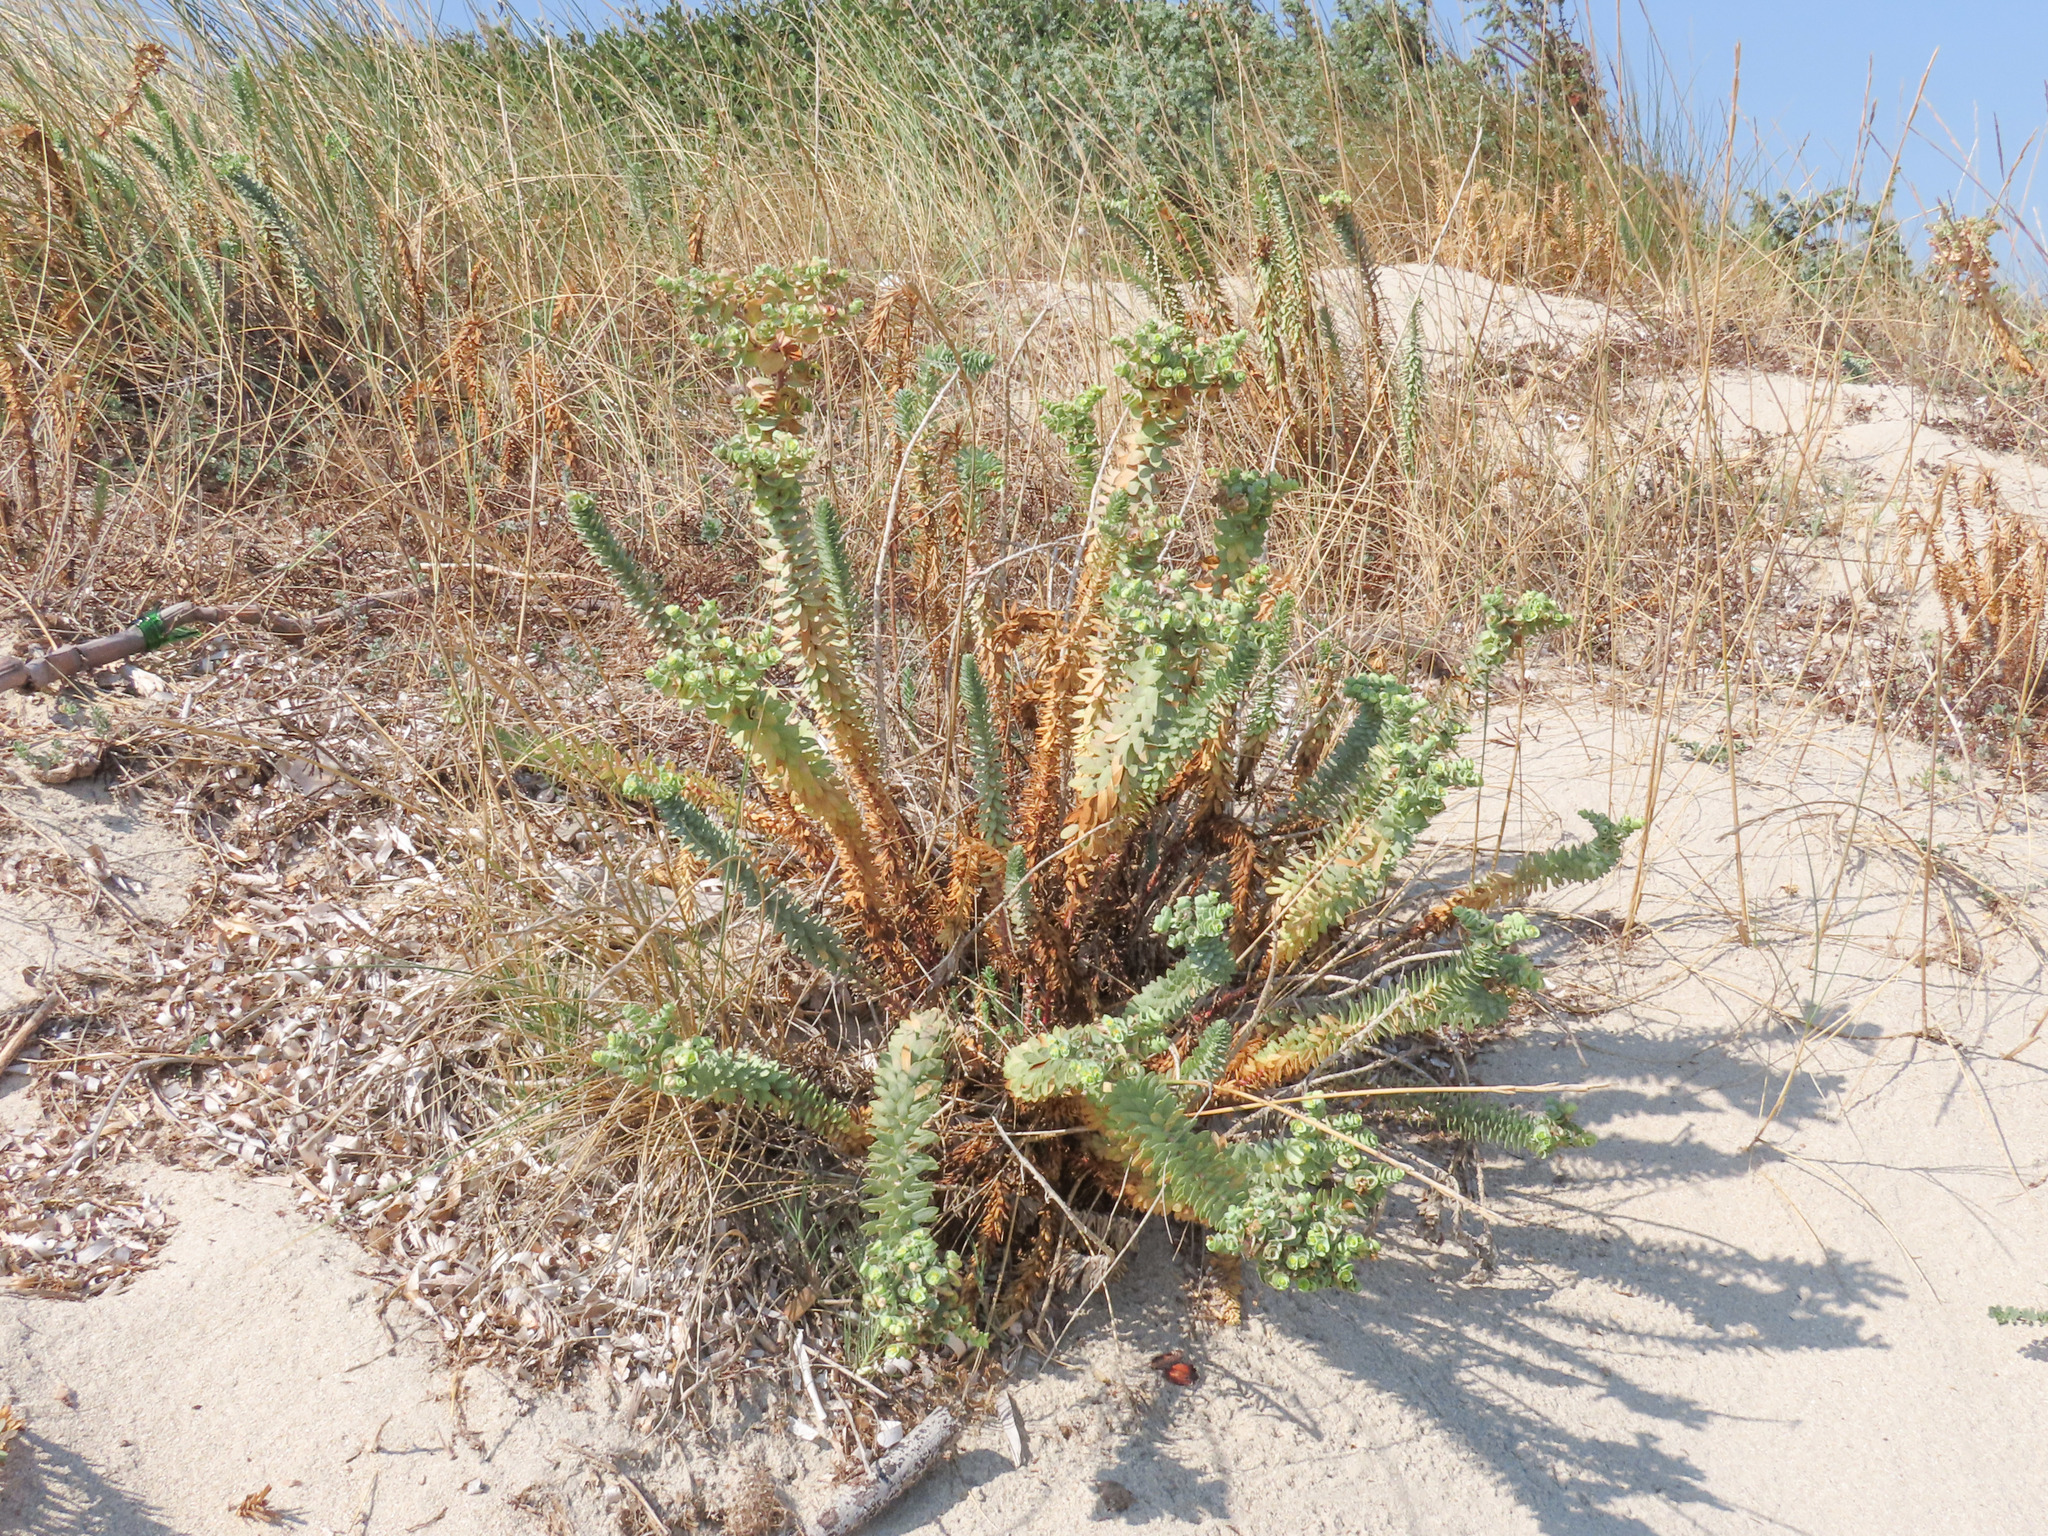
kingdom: Plantae
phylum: Tracheophyta
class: Magnoliopsida
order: Malpighiales
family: Euphorbiaceae
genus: Euphorbia
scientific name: Euphorbia paralias
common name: Sea spurge
